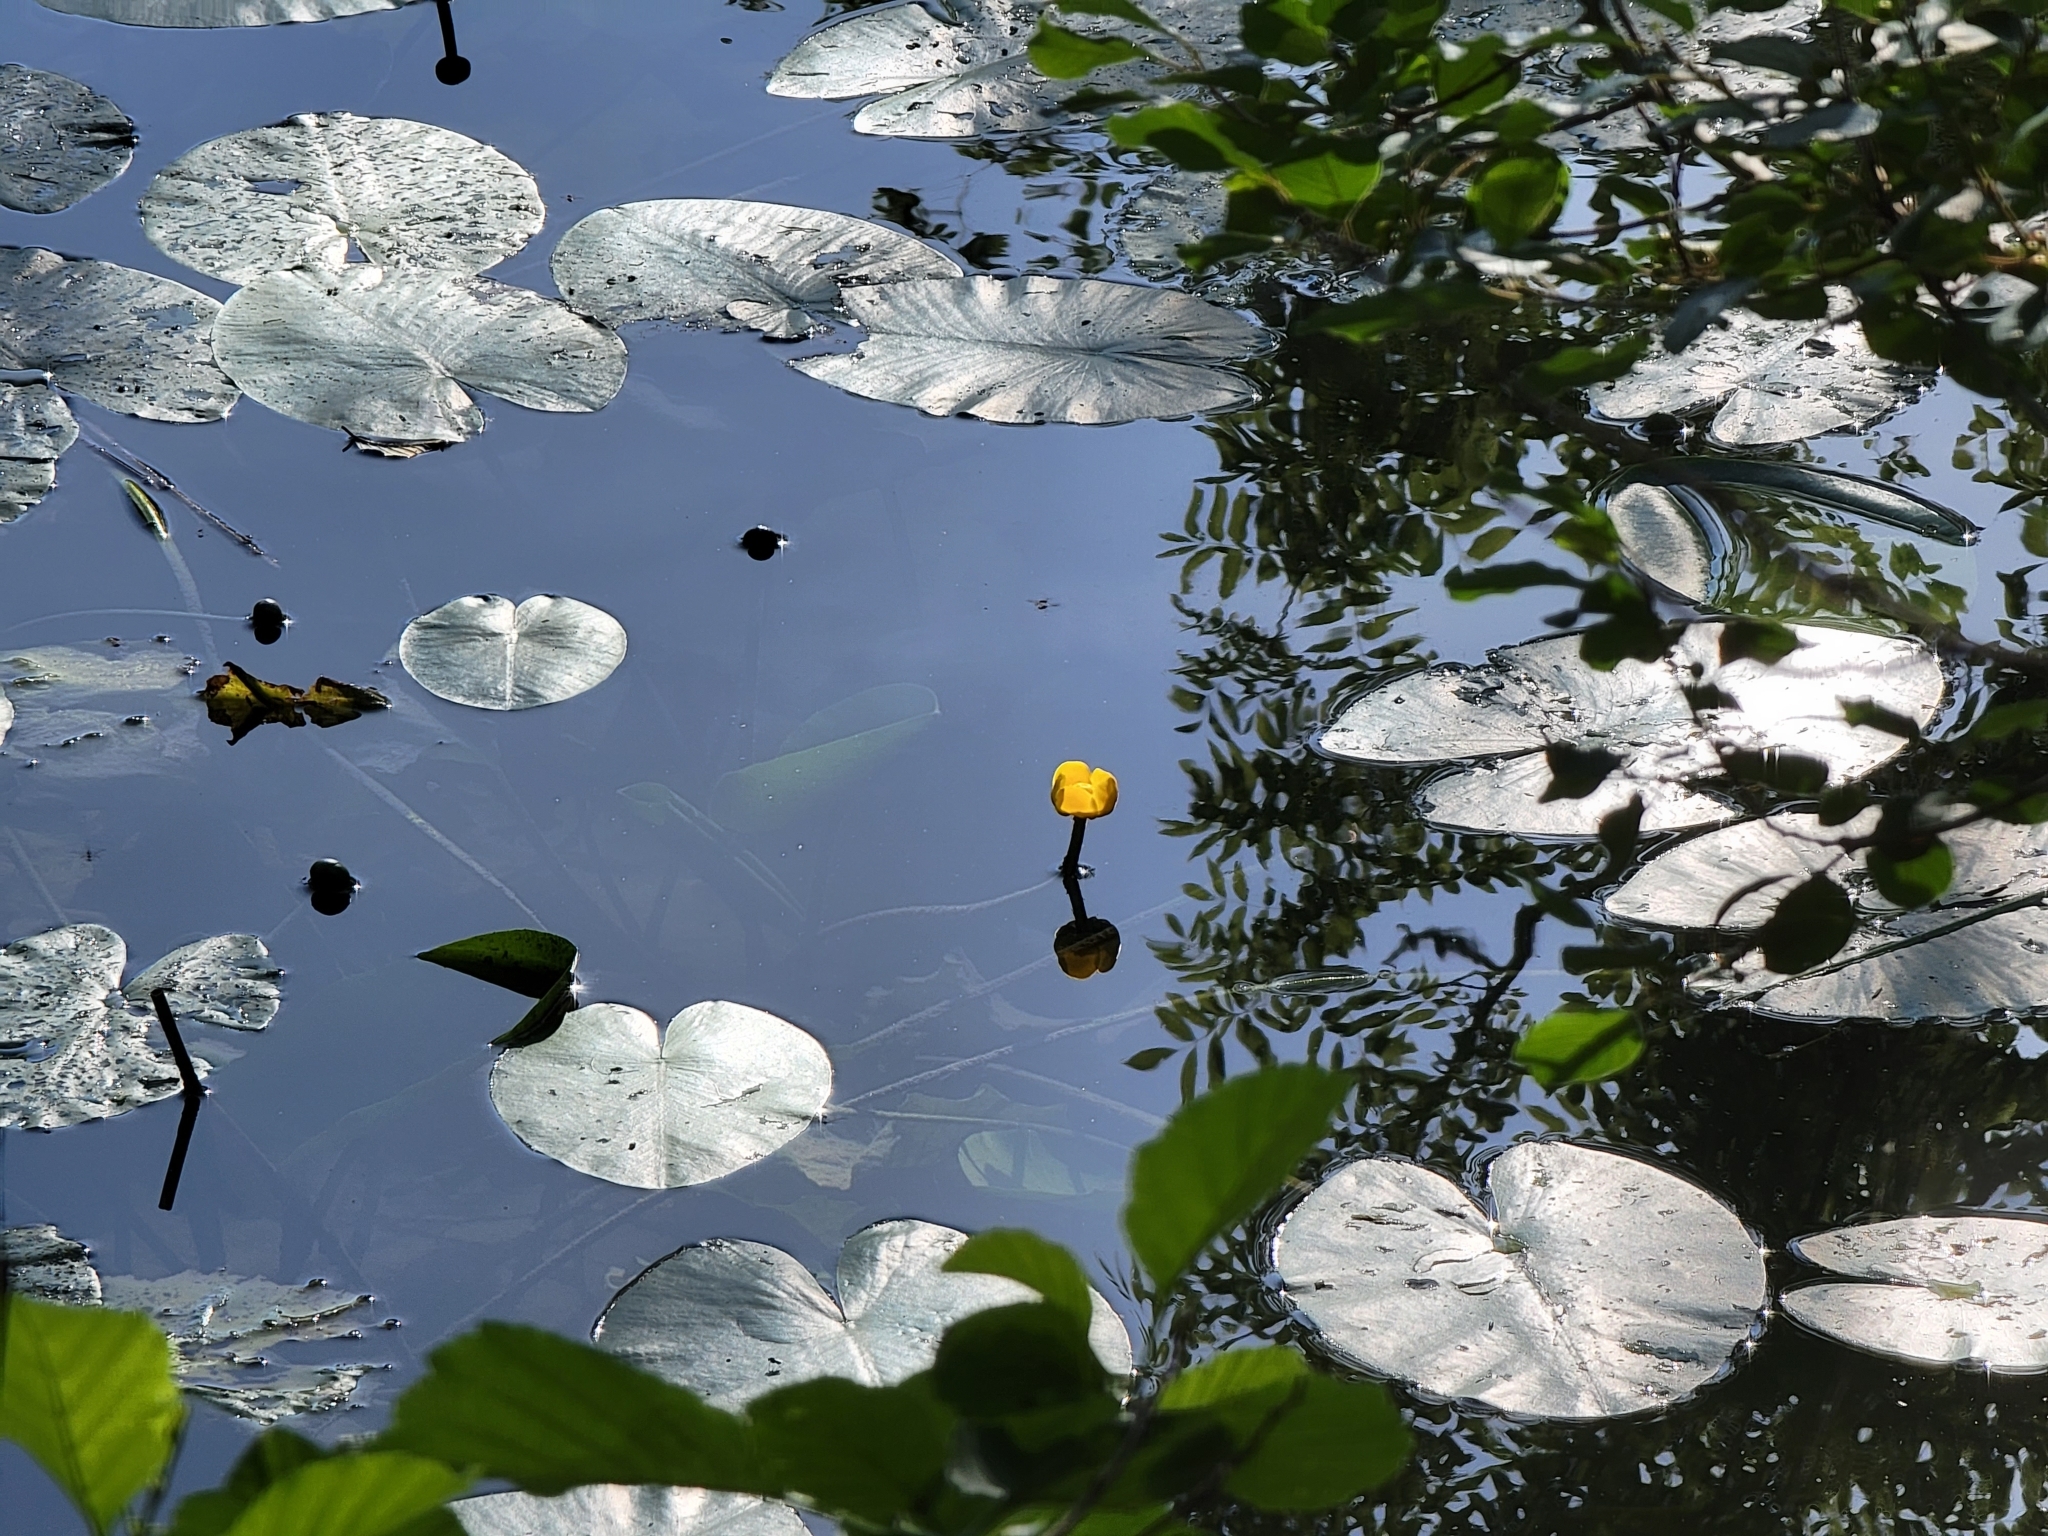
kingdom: Plantae
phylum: Tracheophyta
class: Magnoliopsida
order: Nymphaeales
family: Nymphaeaceae
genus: Nuphar
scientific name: Nuphar lutea
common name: Yellow water-lily
